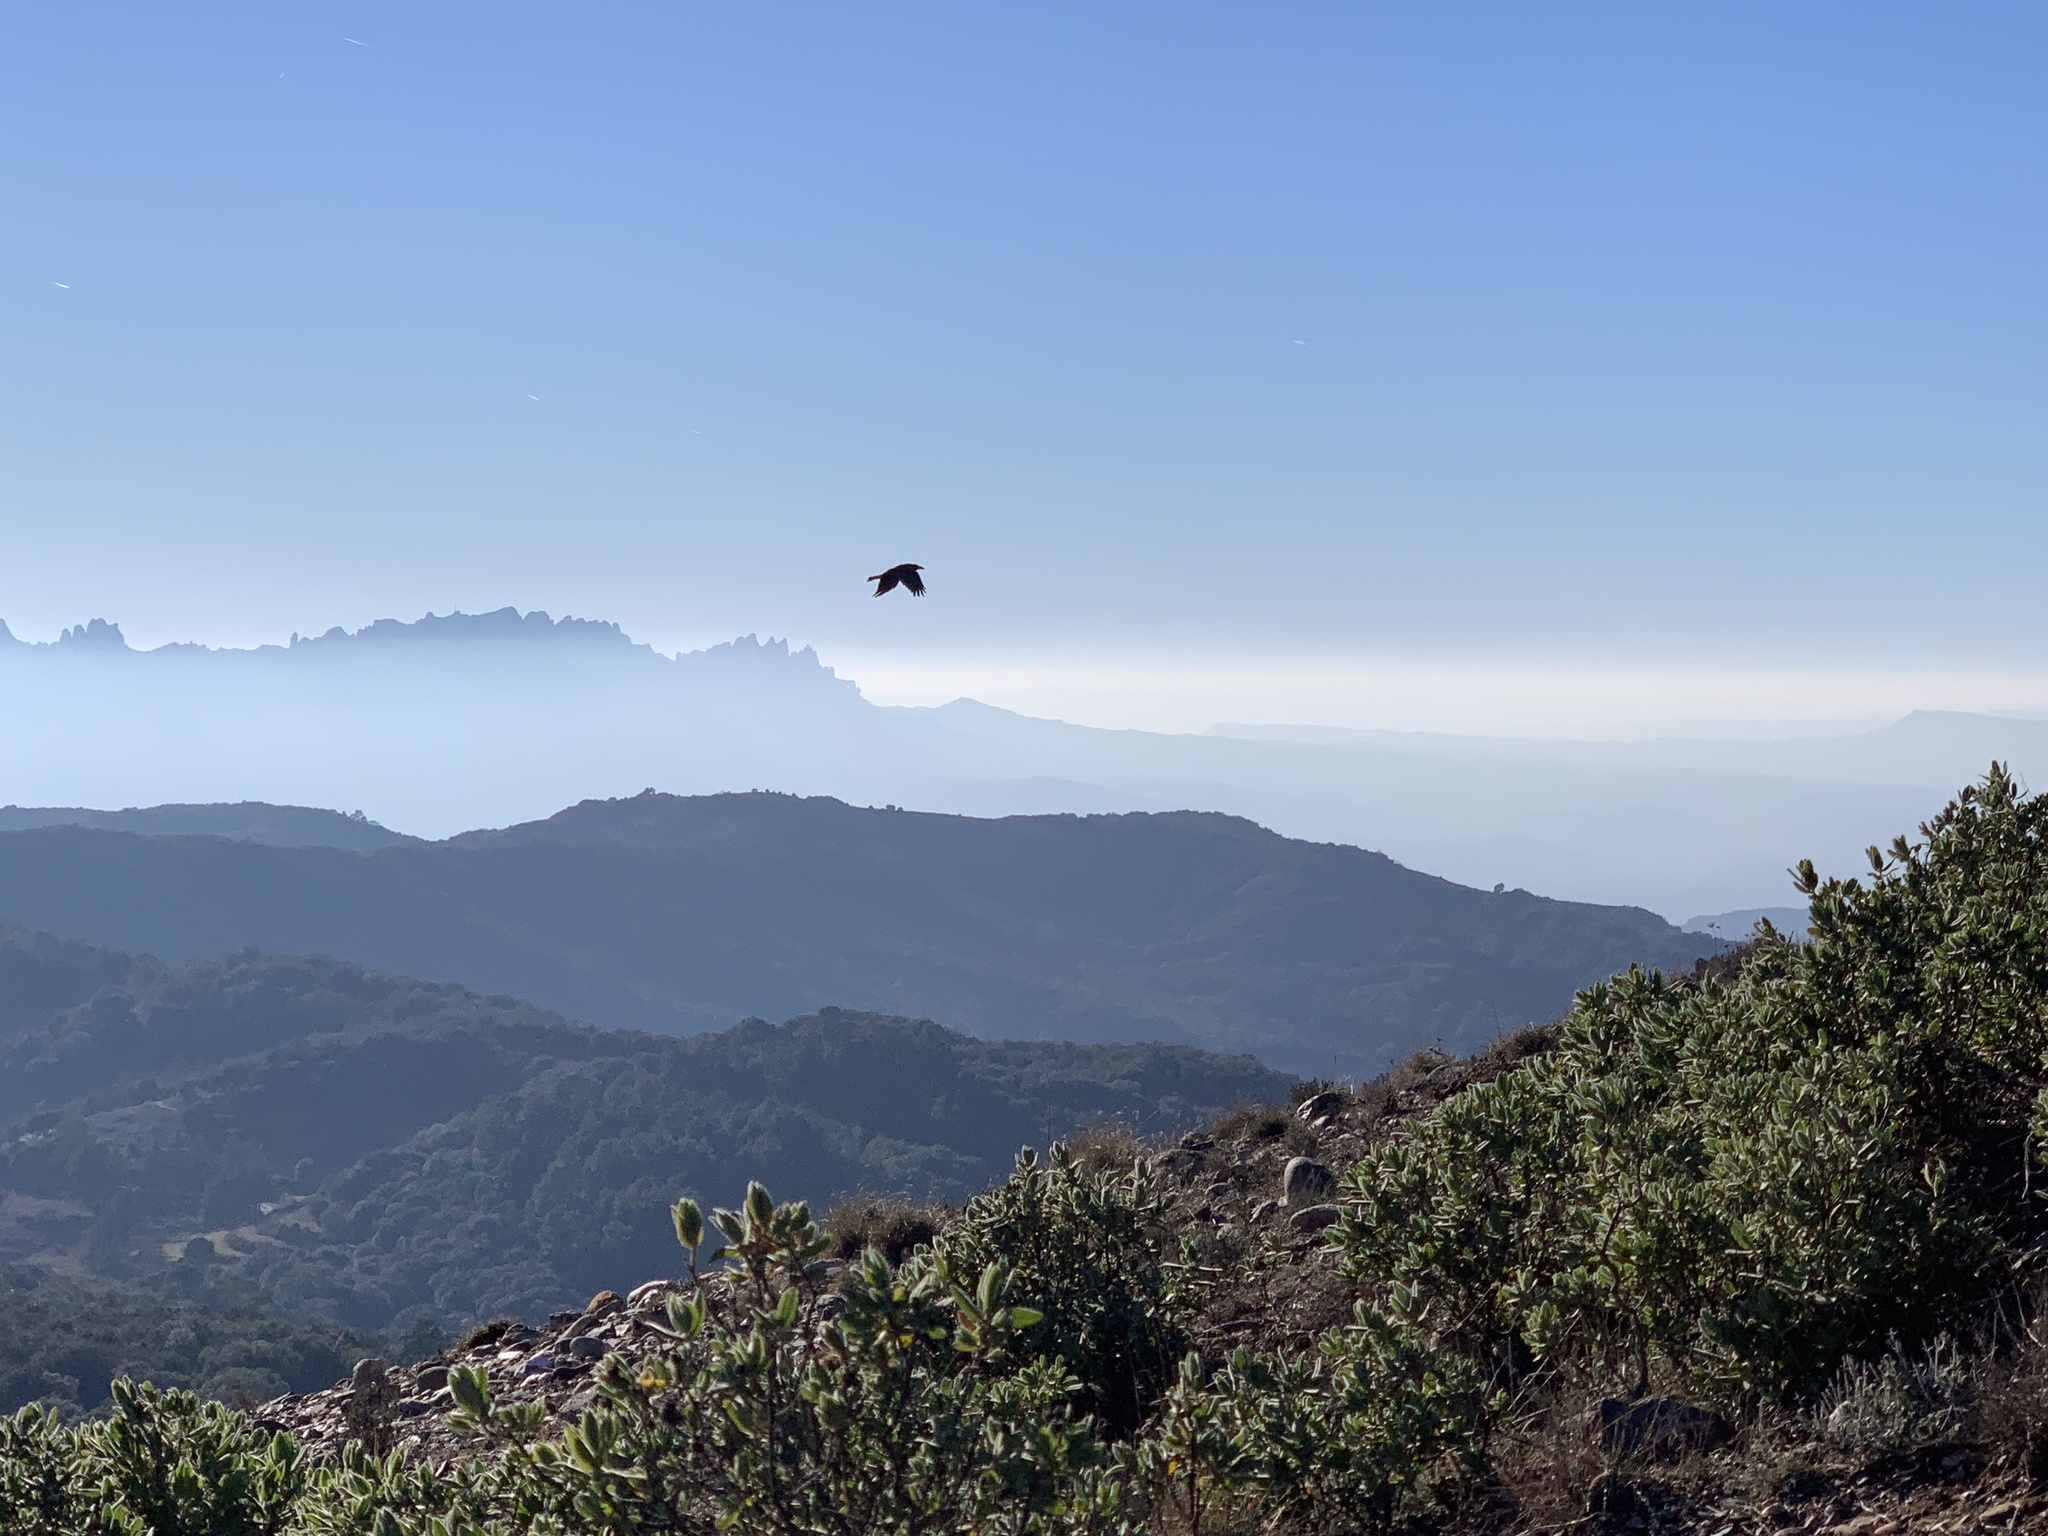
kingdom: Animalia
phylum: Chordata
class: Aves
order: Passeriformes
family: Corvidae
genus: Corvus
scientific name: Corvus corax
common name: Common raven
